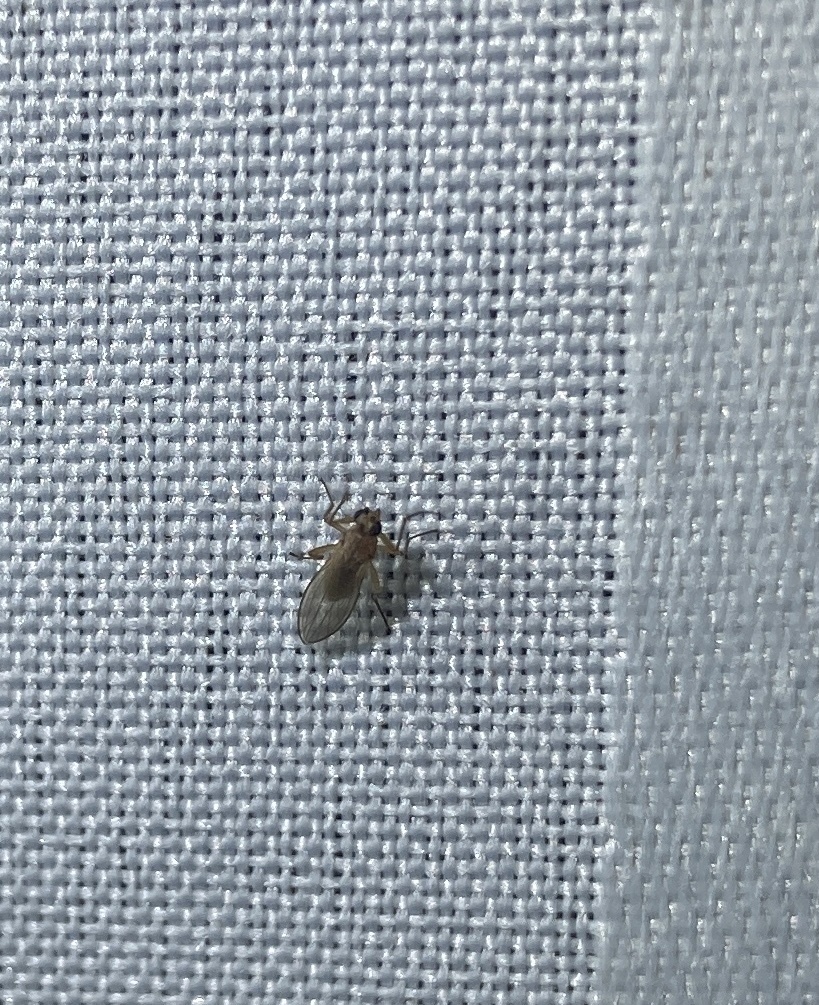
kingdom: Animalia
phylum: Arthropoda
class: Insecta
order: Diptera
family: Lonchopteridae
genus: Lonchoptera
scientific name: Lonchoptera bifurcata
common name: Spear-winged fly
